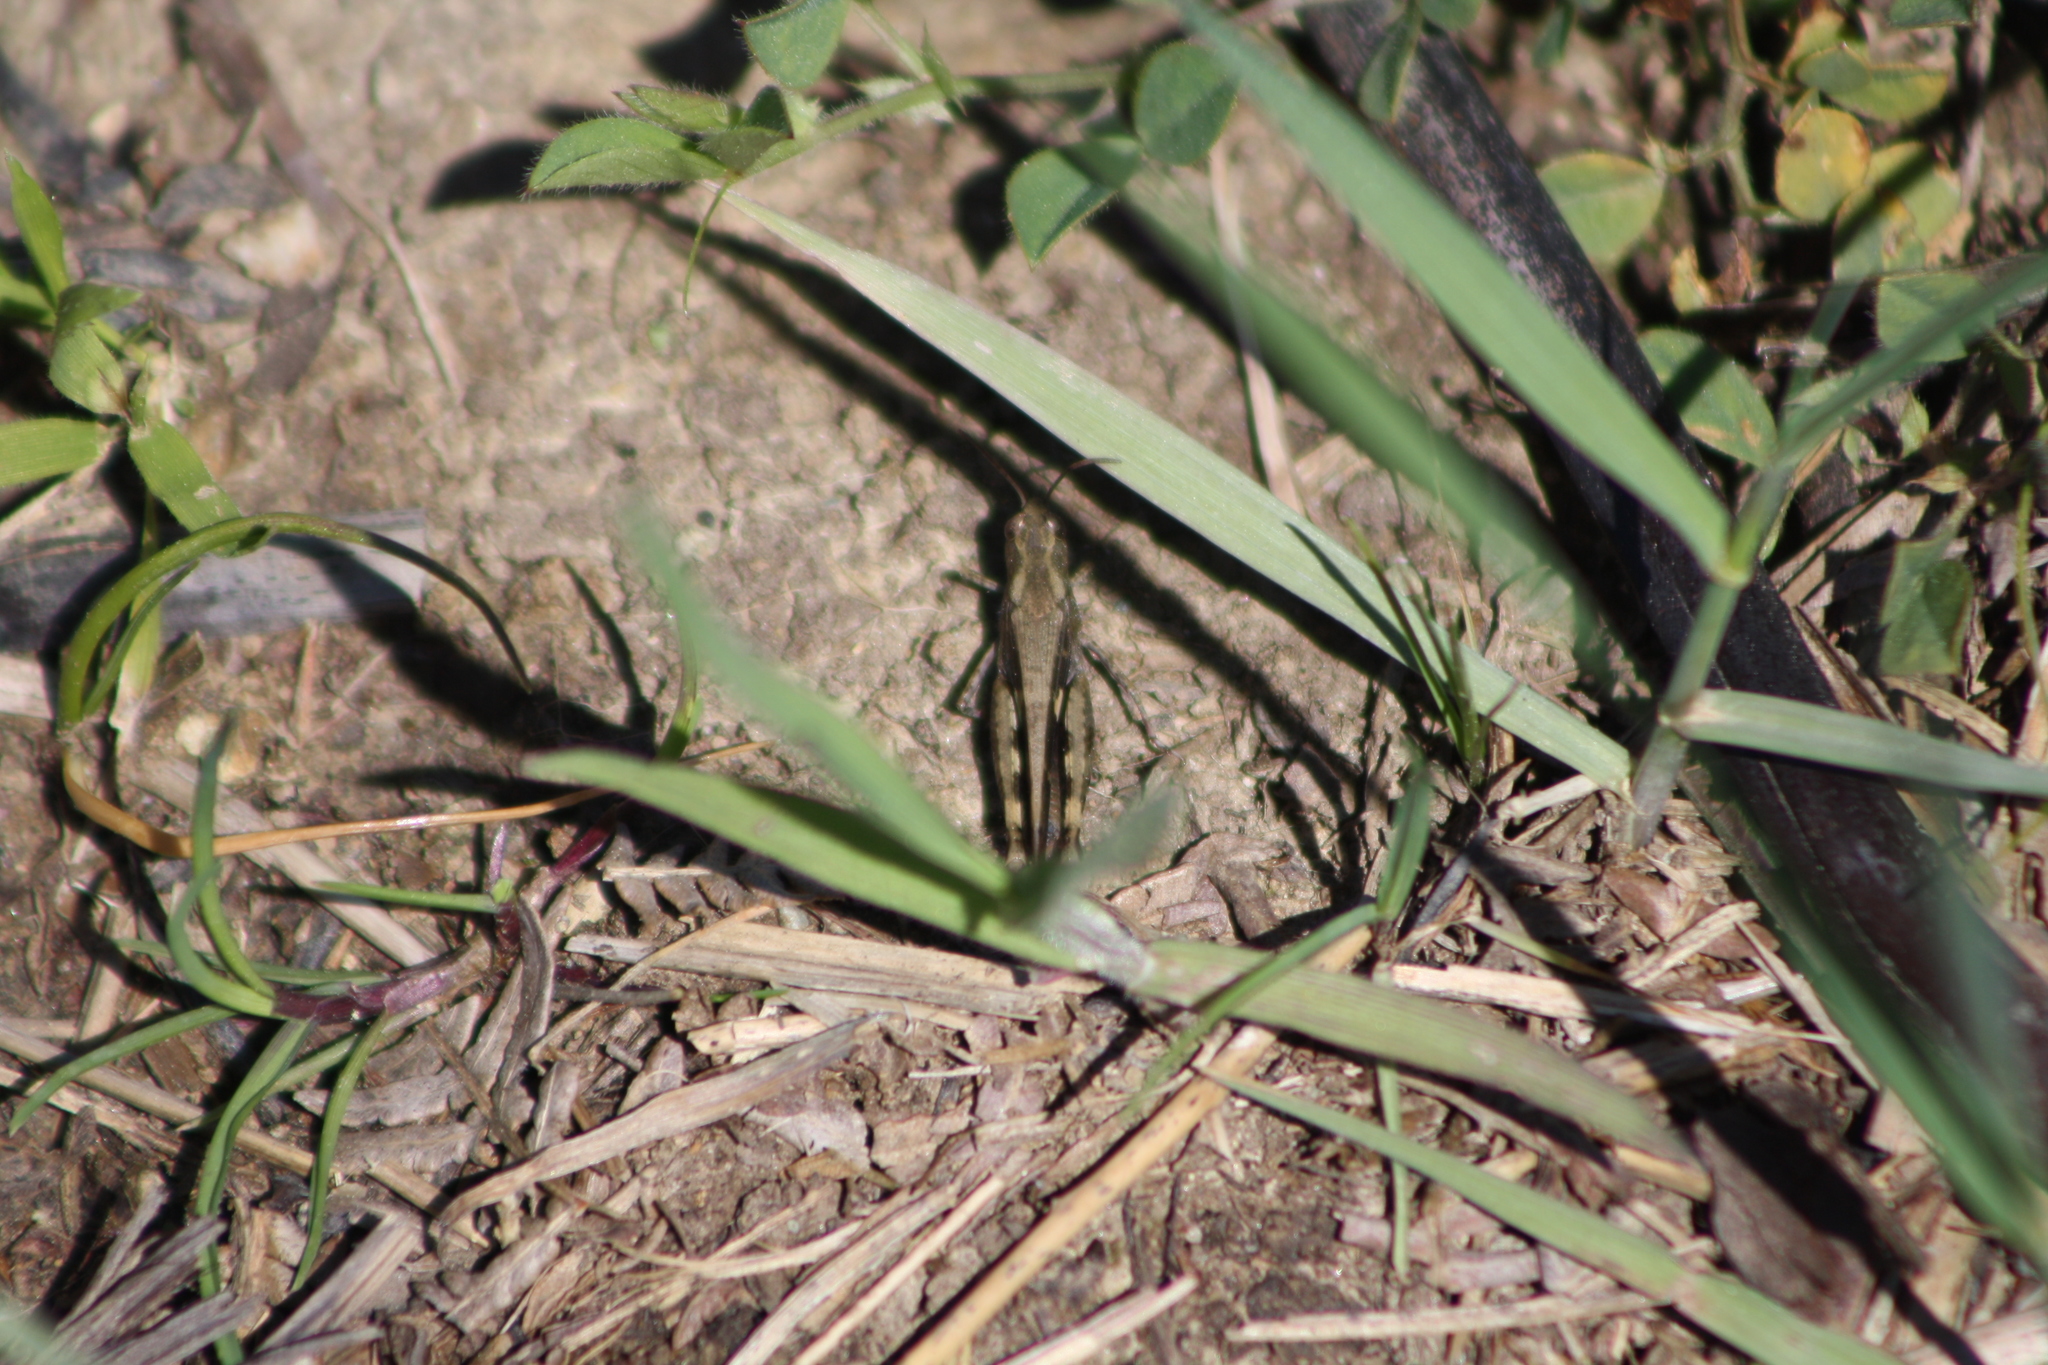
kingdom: Animalia
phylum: Arthropoda
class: Insecta
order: Orthoptera
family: Acrididae
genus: Aiolopus
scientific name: Aiolopus strepens
